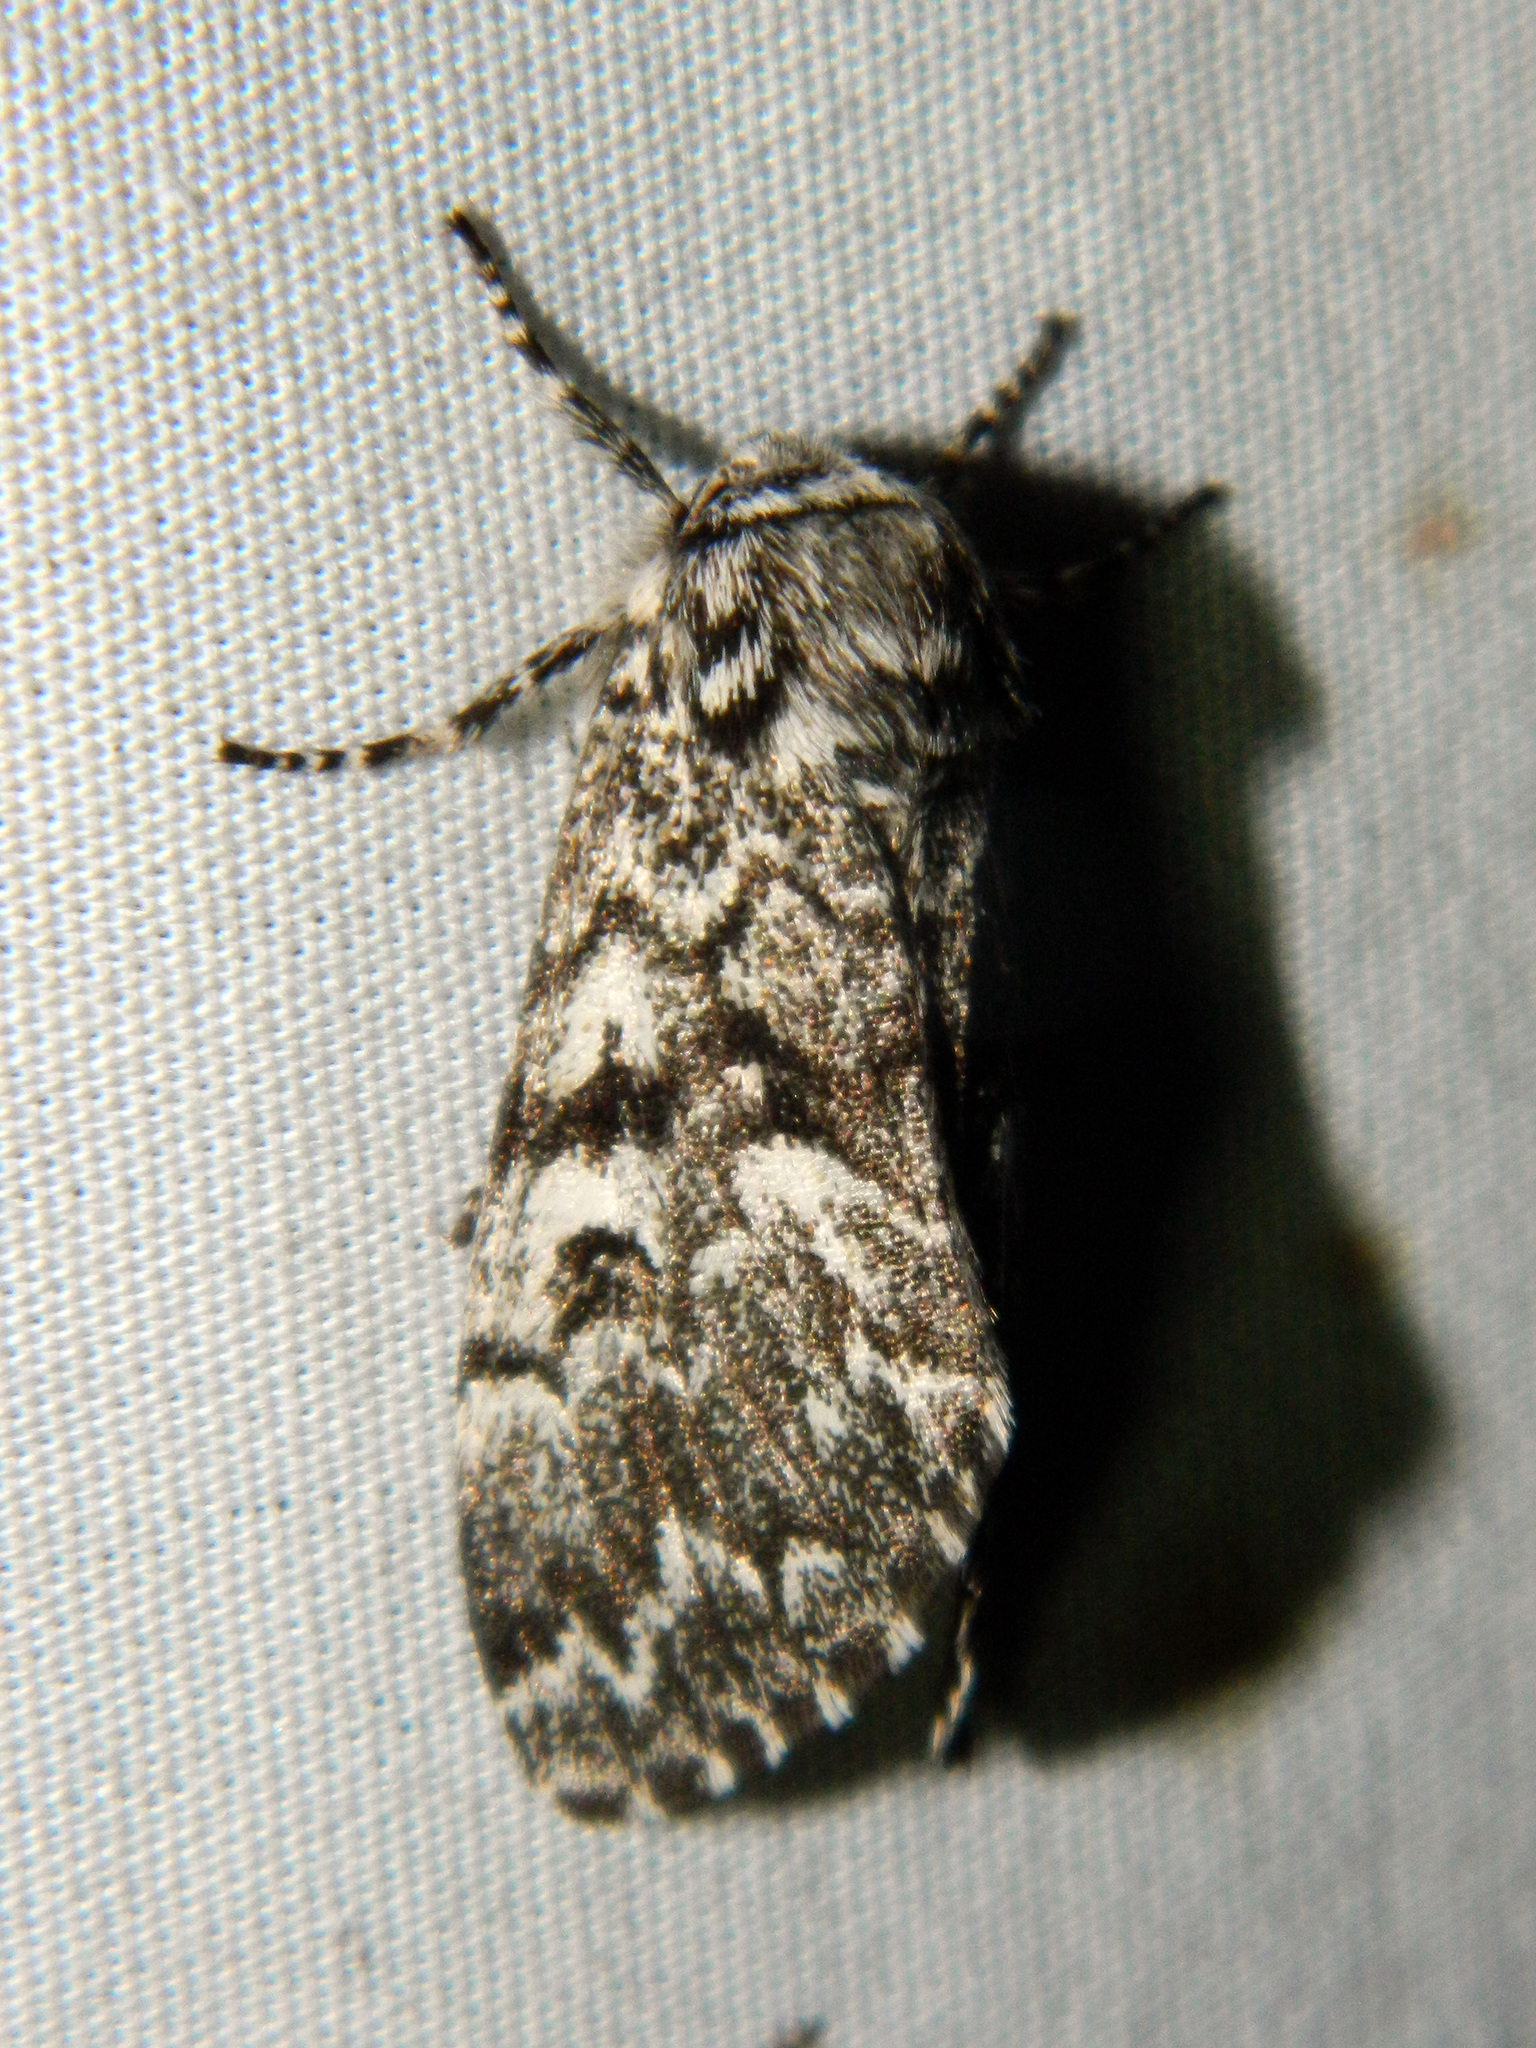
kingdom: Animalia
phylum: Arthropoda
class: Insecta
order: Lepidoptera
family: Noctuidae
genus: Panthea
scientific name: Panthea acronyctoides
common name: Black zigzag moth
